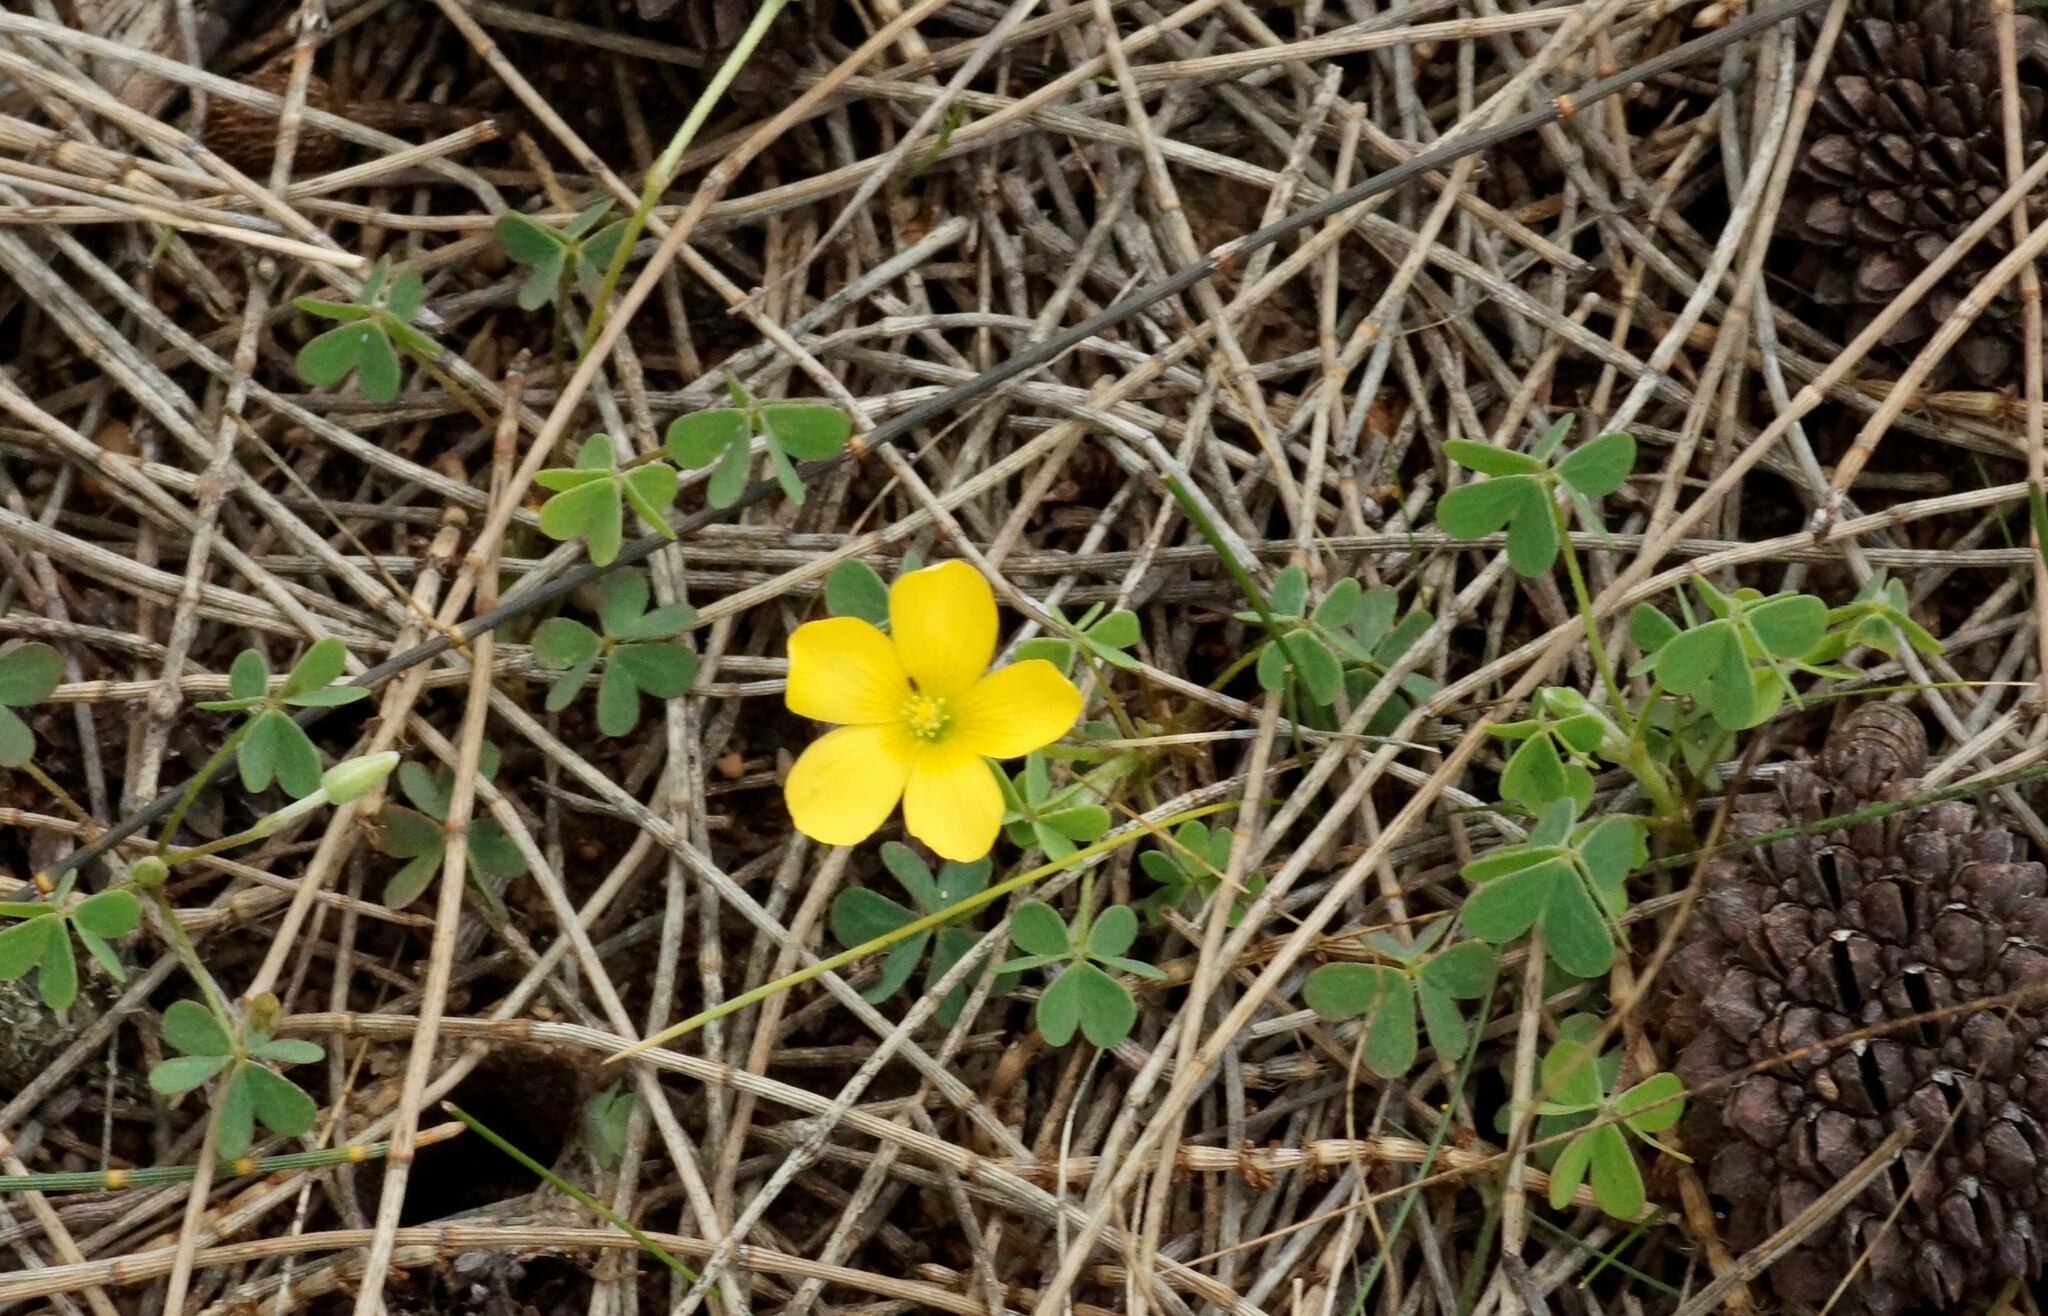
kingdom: Plantae
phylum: Tracheophyta
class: Magnoliopsida
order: Oxalidales
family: Oxalidaceae
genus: Oxalis
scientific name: Oxalis perennans
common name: Woody-rooted yellow-sorrel
